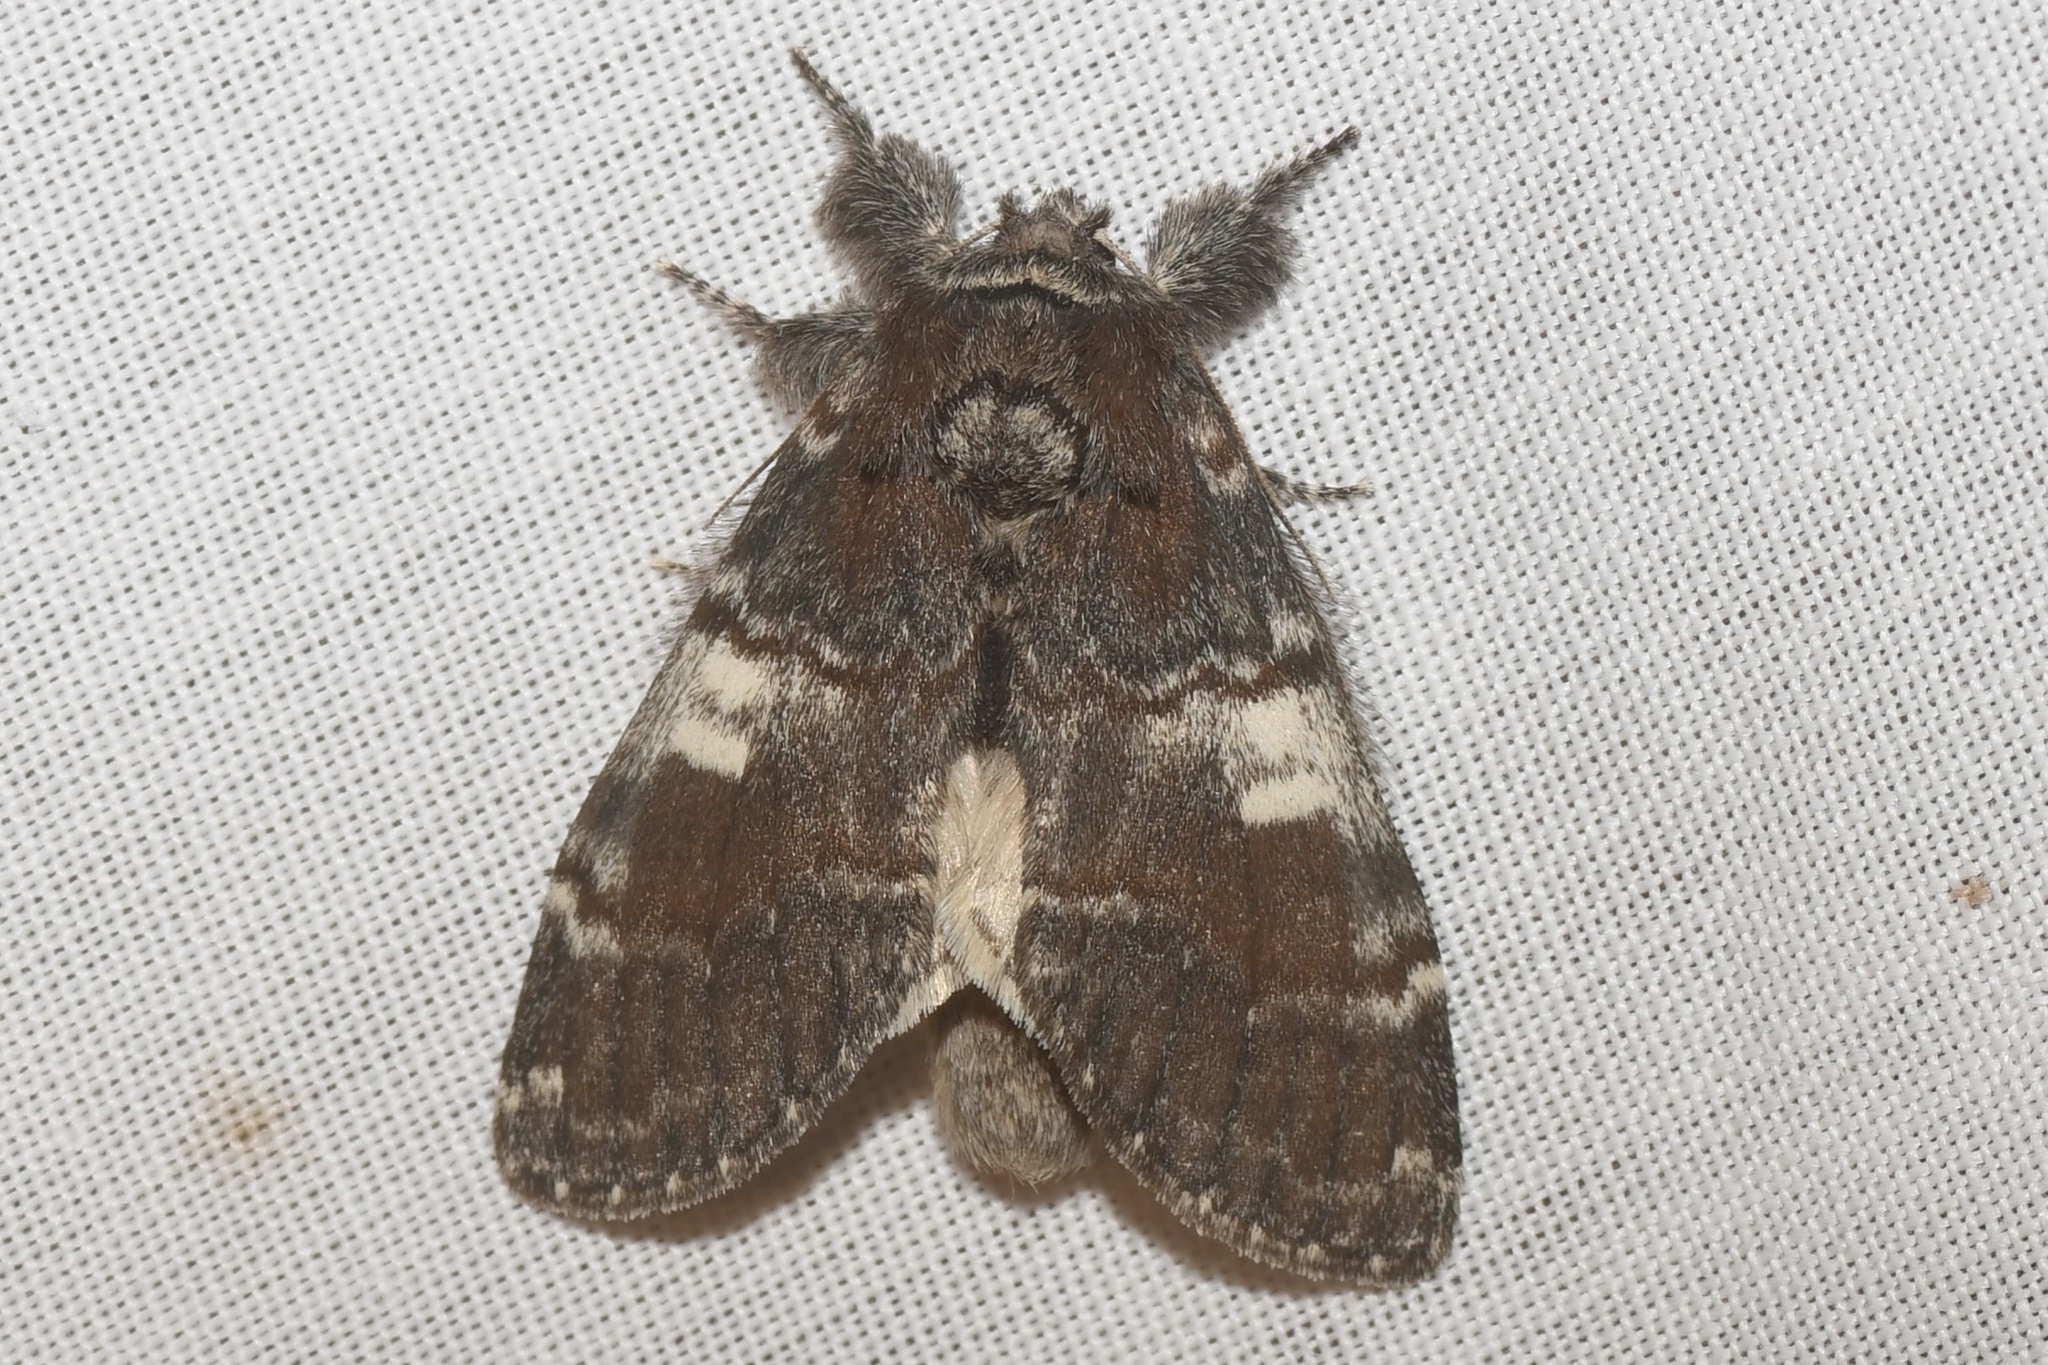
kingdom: Animalia
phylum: Arthropoda
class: Insecta
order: Lepidoptera
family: Notodontidae
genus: Peridea
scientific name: Peridea ferruginea
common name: Chocolate prominent
